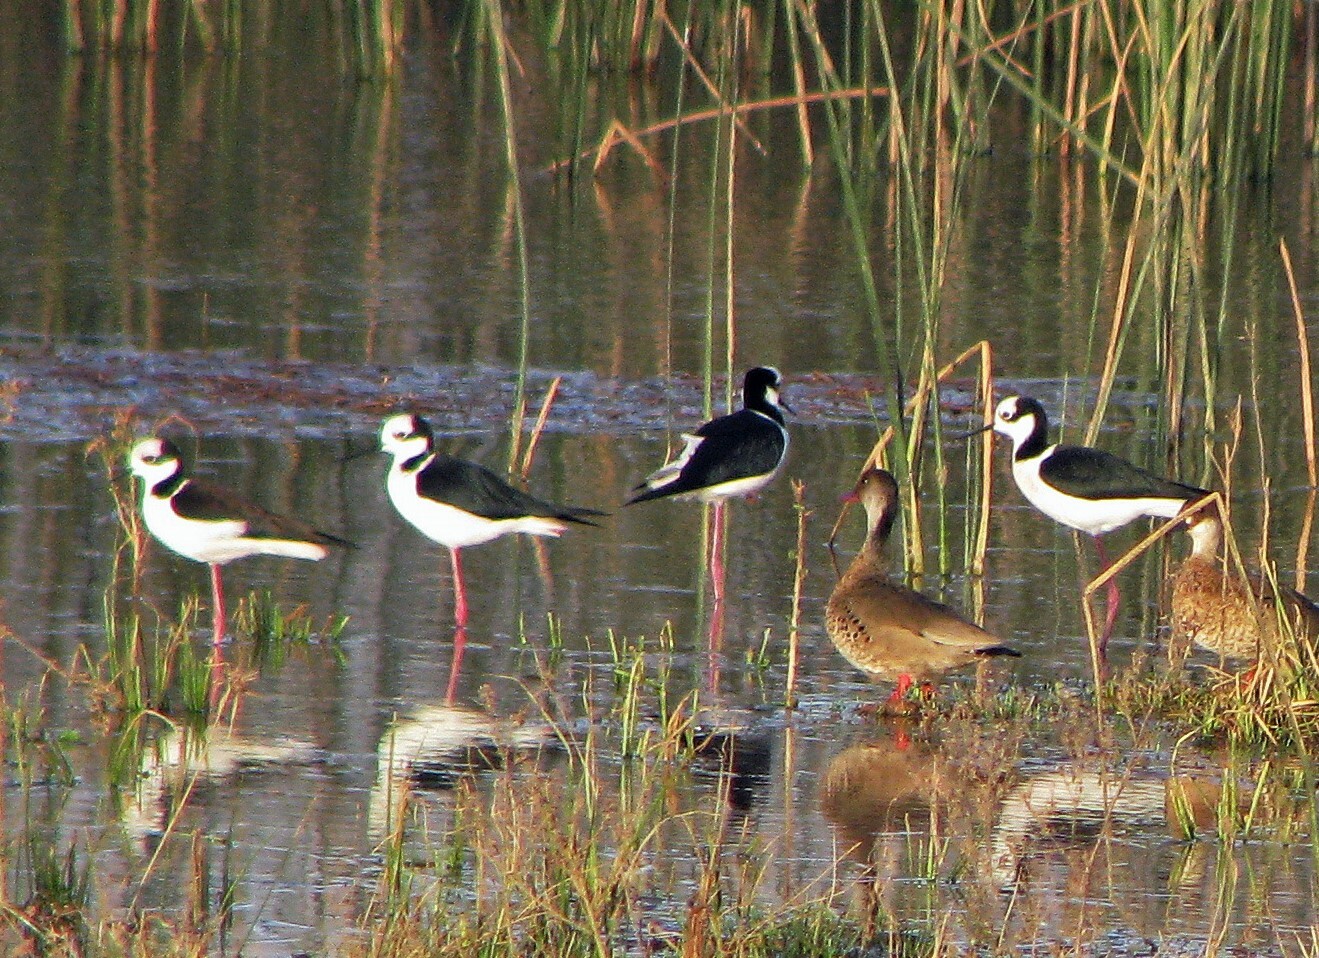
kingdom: Animalia
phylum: Chordata
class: Aves
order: Charadriiformes
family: Recurvirostridae
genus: Himantopus
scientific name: Himantopus mexicanus
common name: Black-necked stilt
